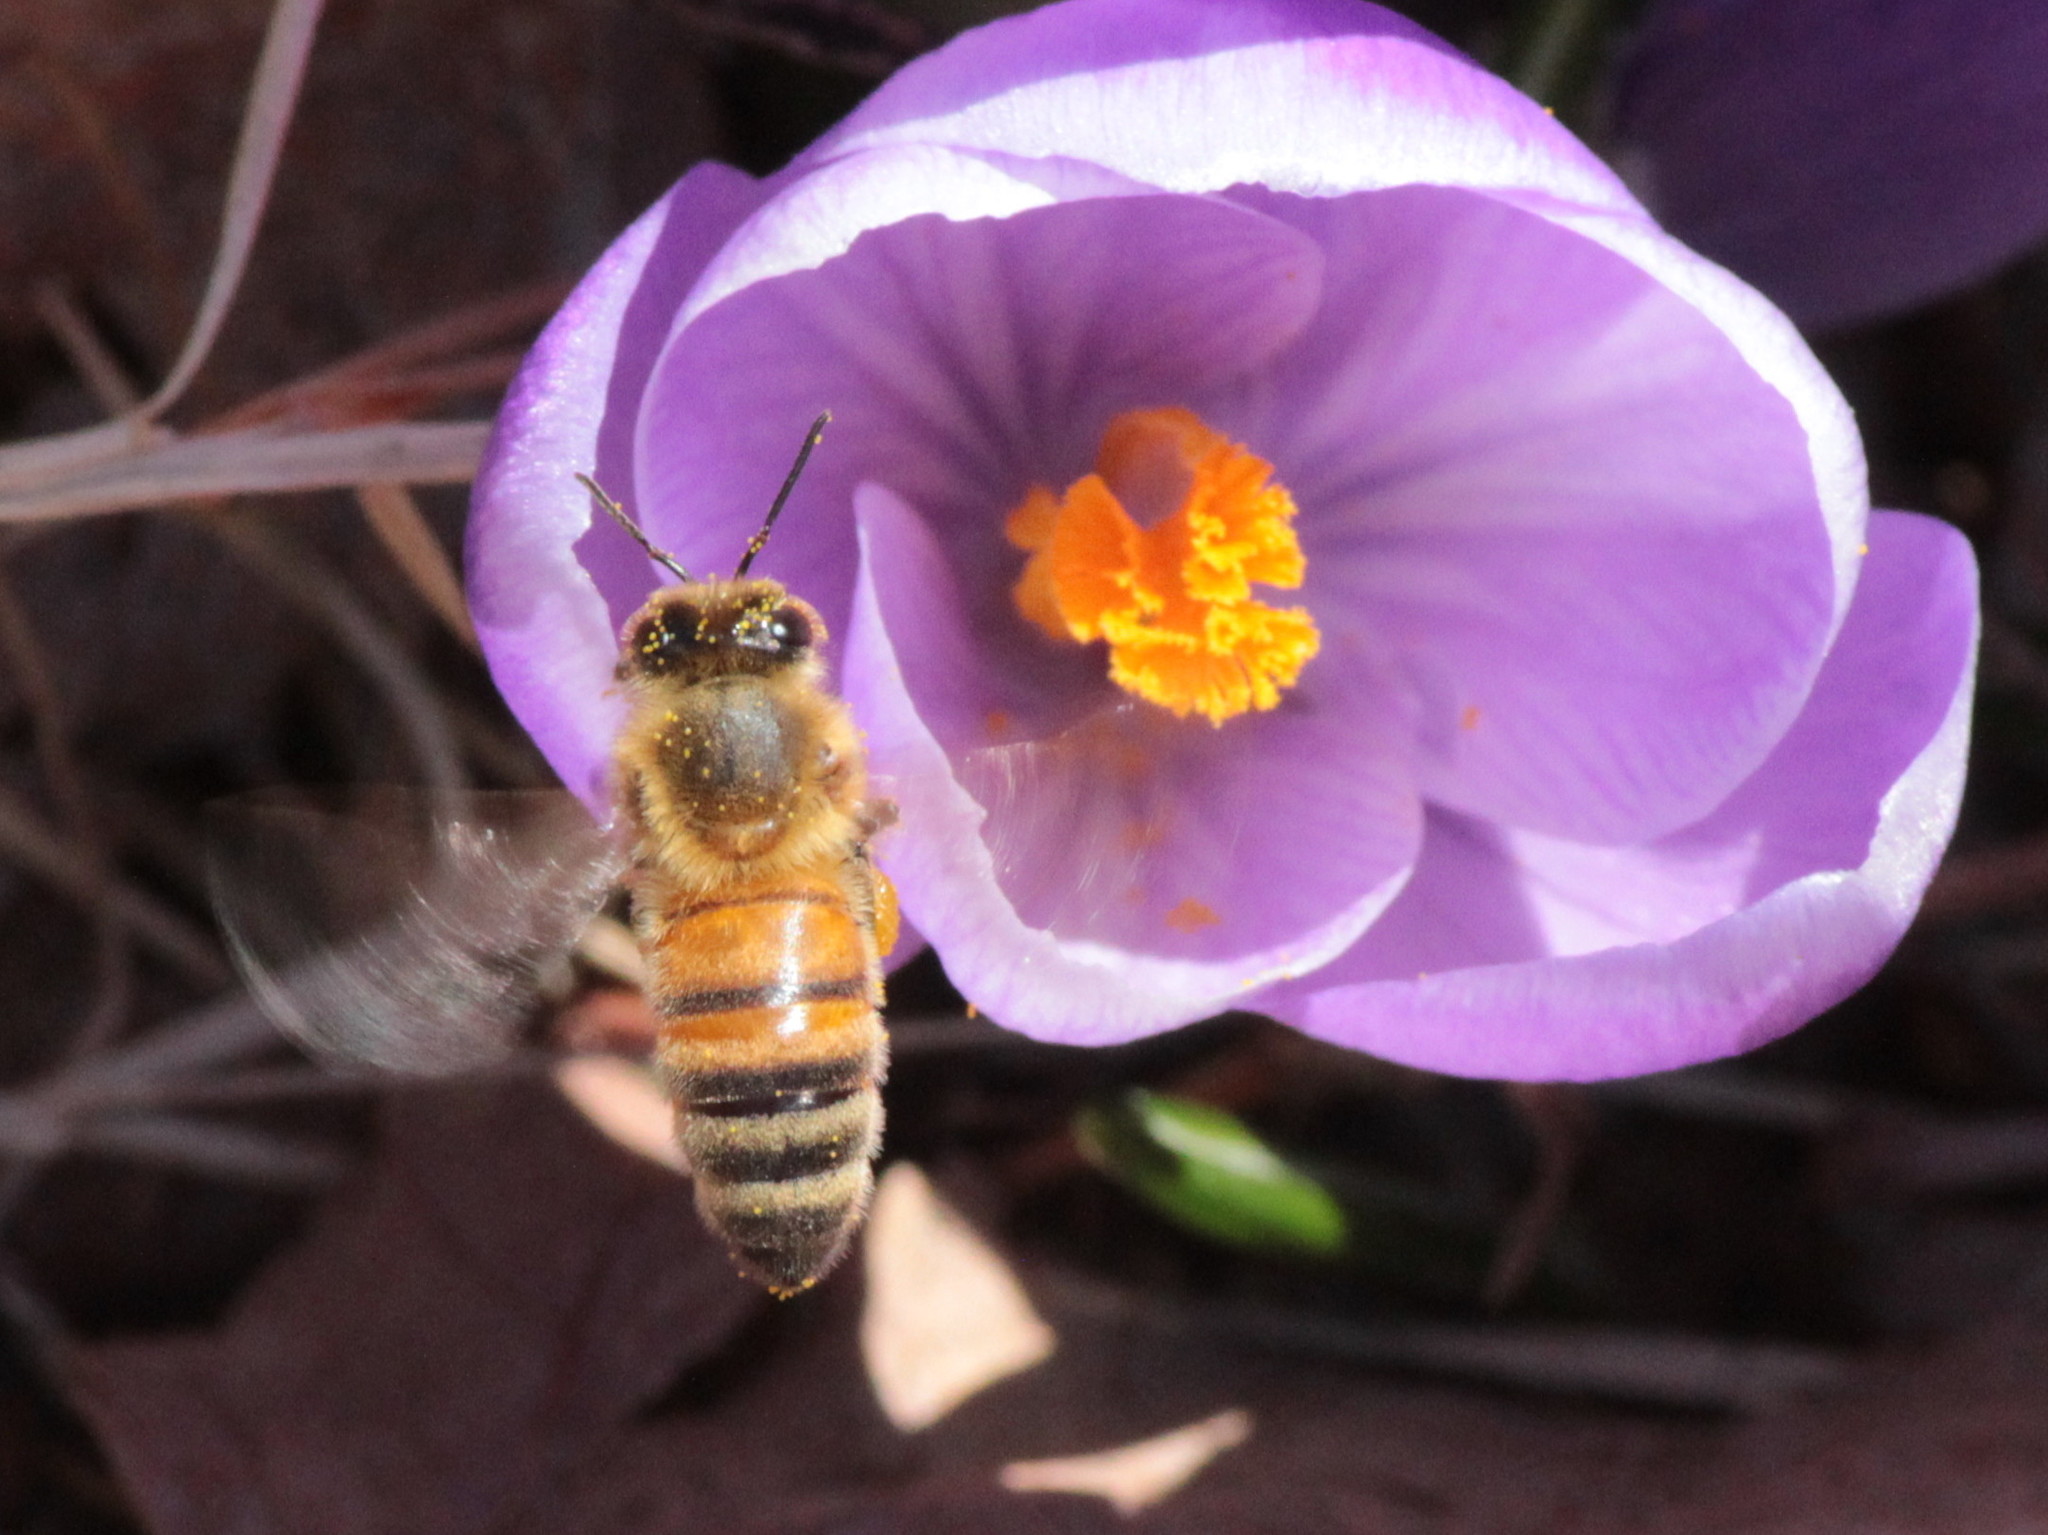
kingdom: Animalia
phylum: Arthropoda
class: Insecta
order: Hymenoptera
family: Apidae
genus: Apis
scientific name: Apis mellifera
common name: Honey bee
